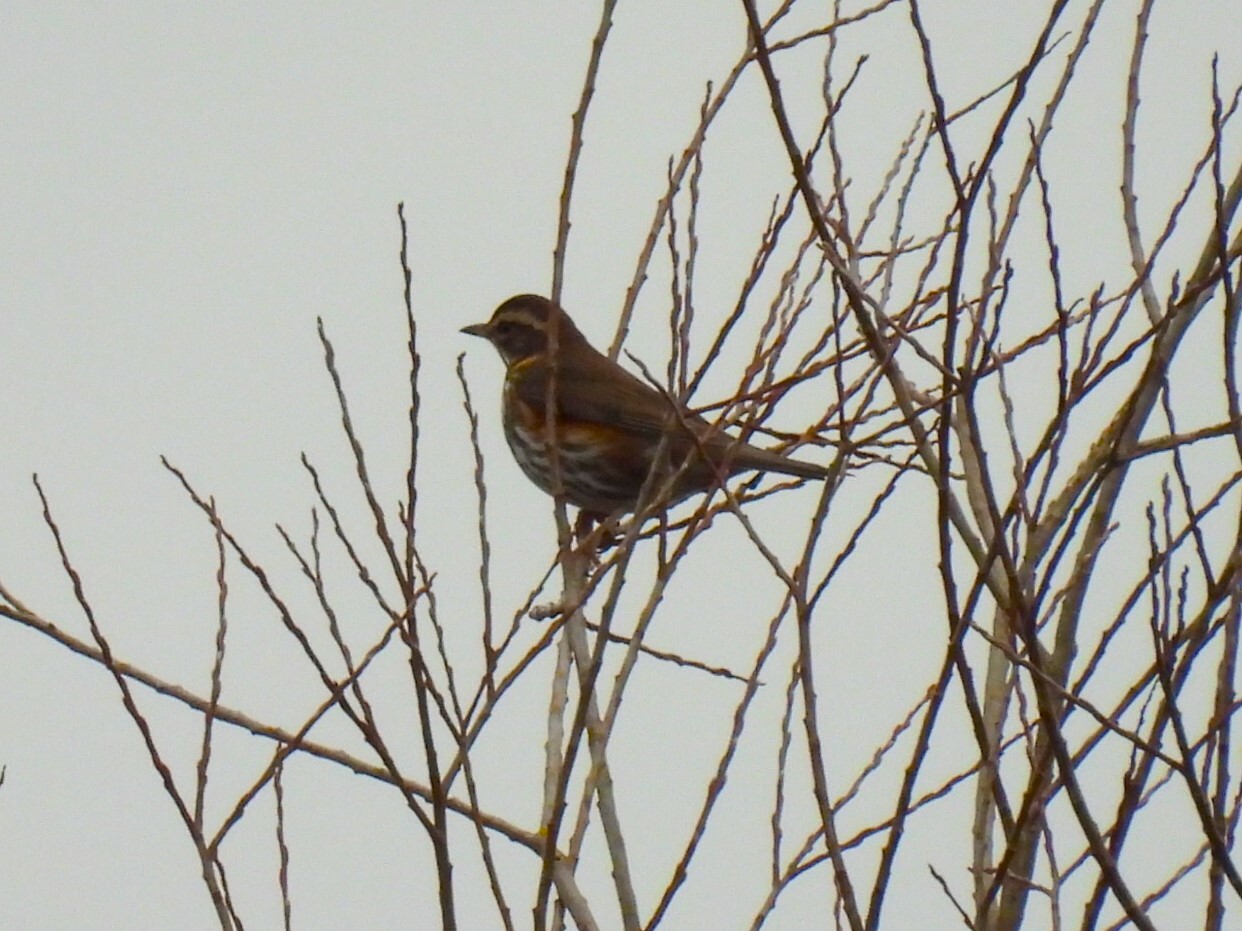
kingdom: Animalia
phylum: Chordata
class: Aves
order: Passeriformes
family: Turdidae
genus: Turdus
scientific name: Turdus iliacus
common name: Redwing
